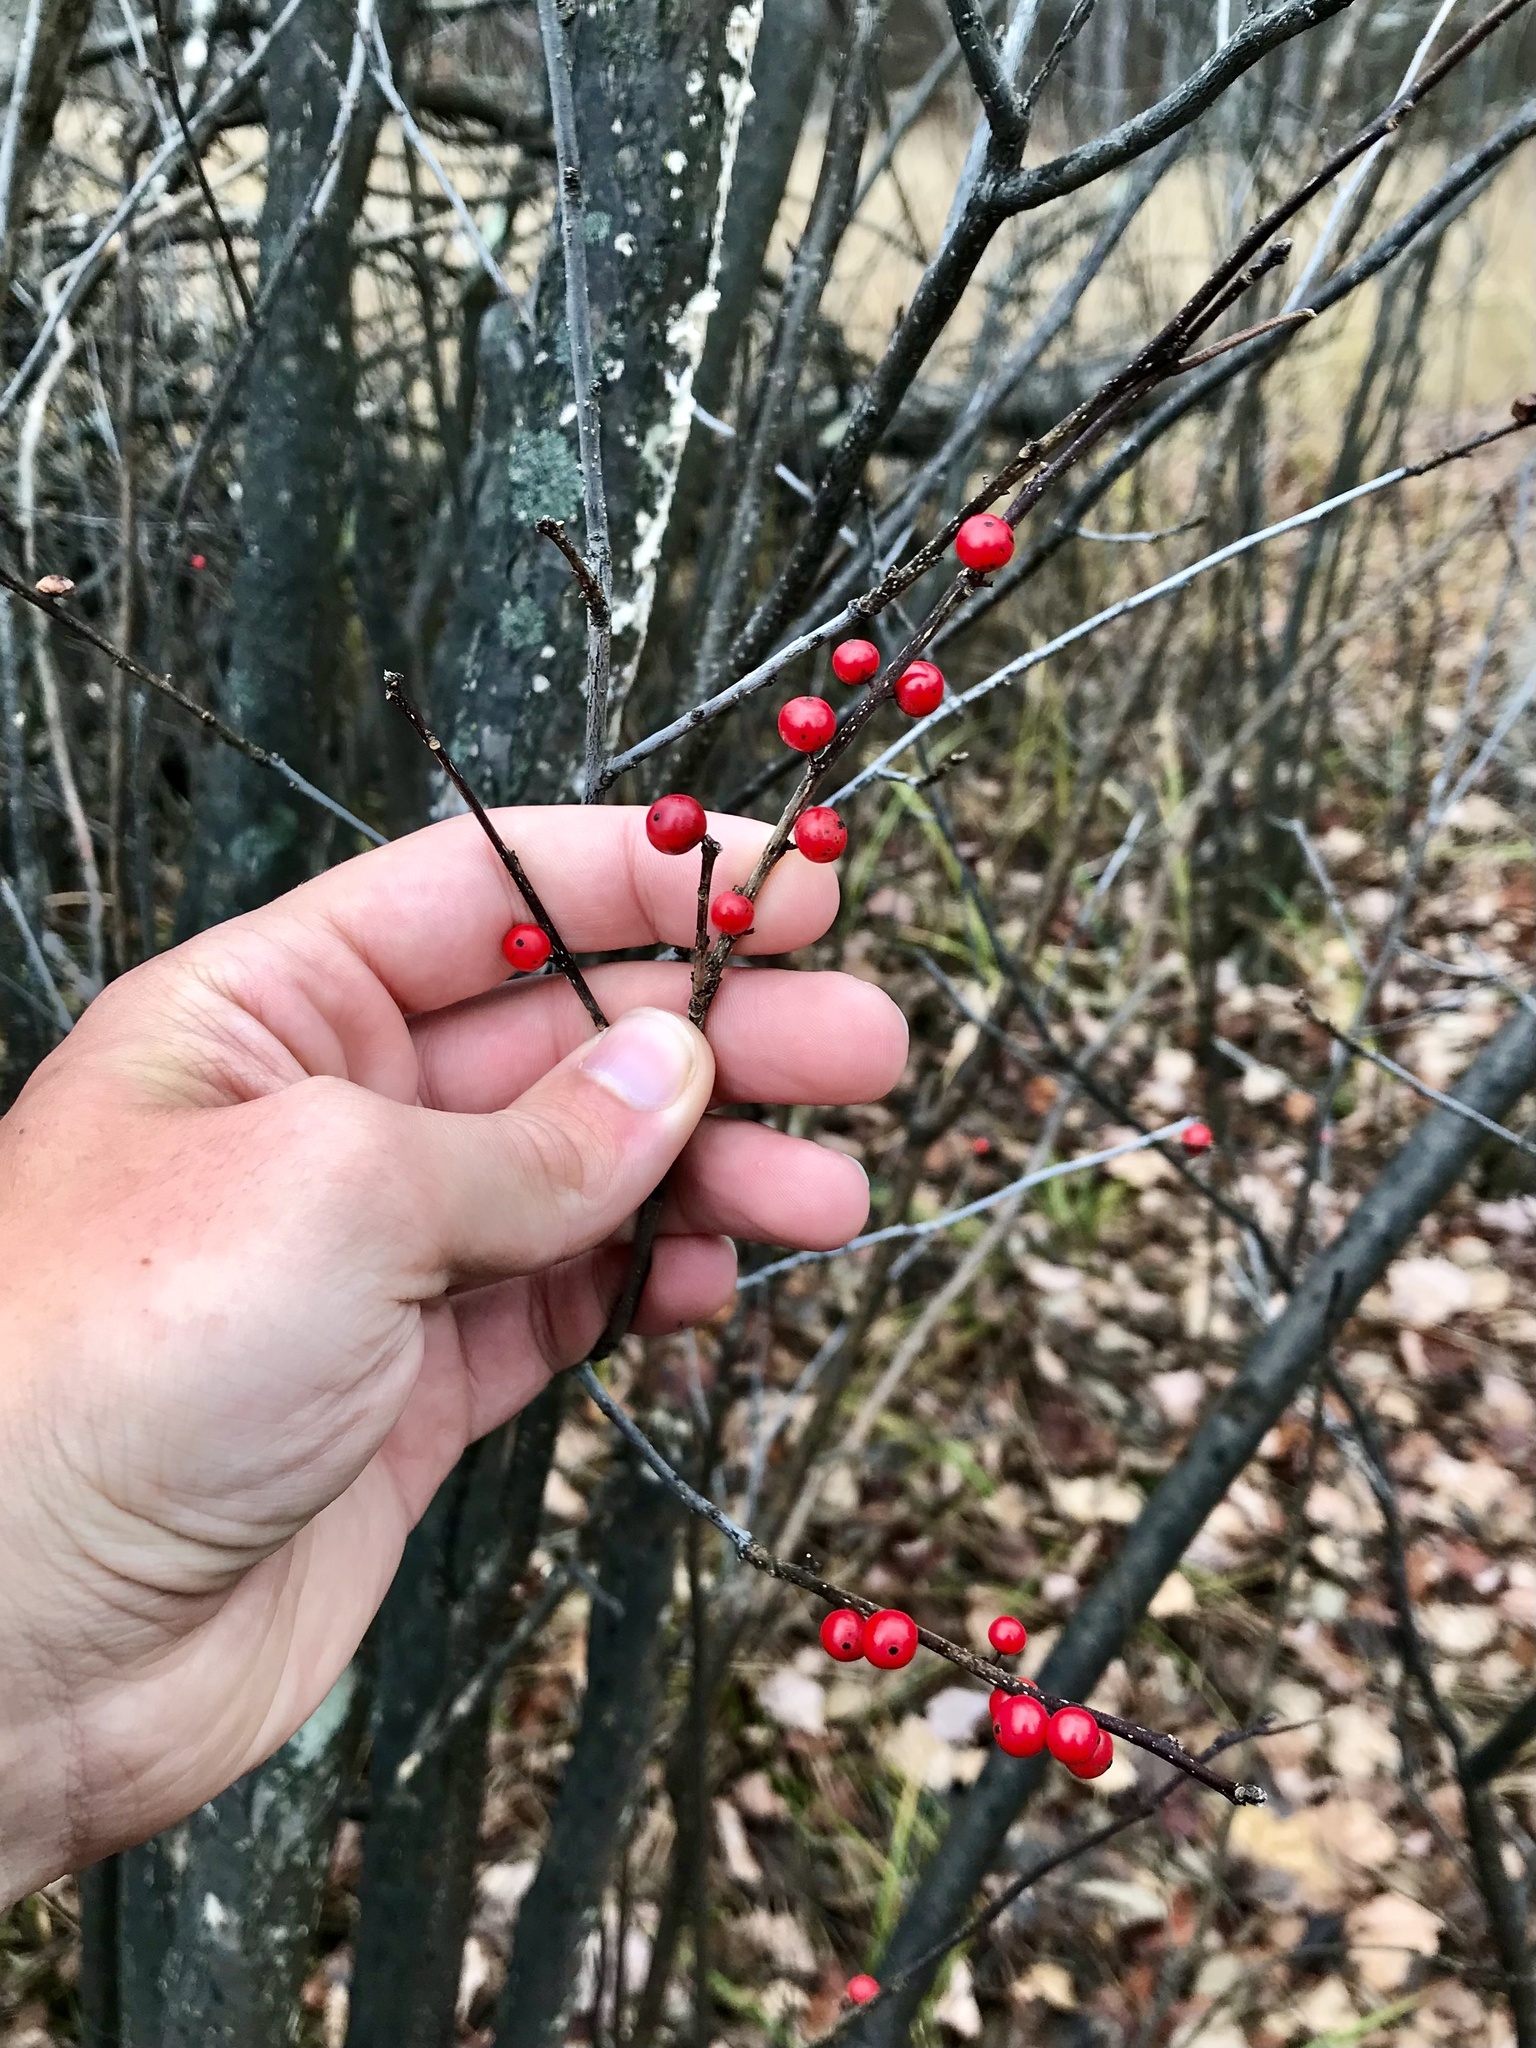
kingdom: Plantae
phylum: Tracheophyta
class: Magnoliopsida
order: Aquifoliales
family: Aquifoliaceae
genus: Ilex
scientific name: Ilex verticillata
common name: Virginia winterberry
